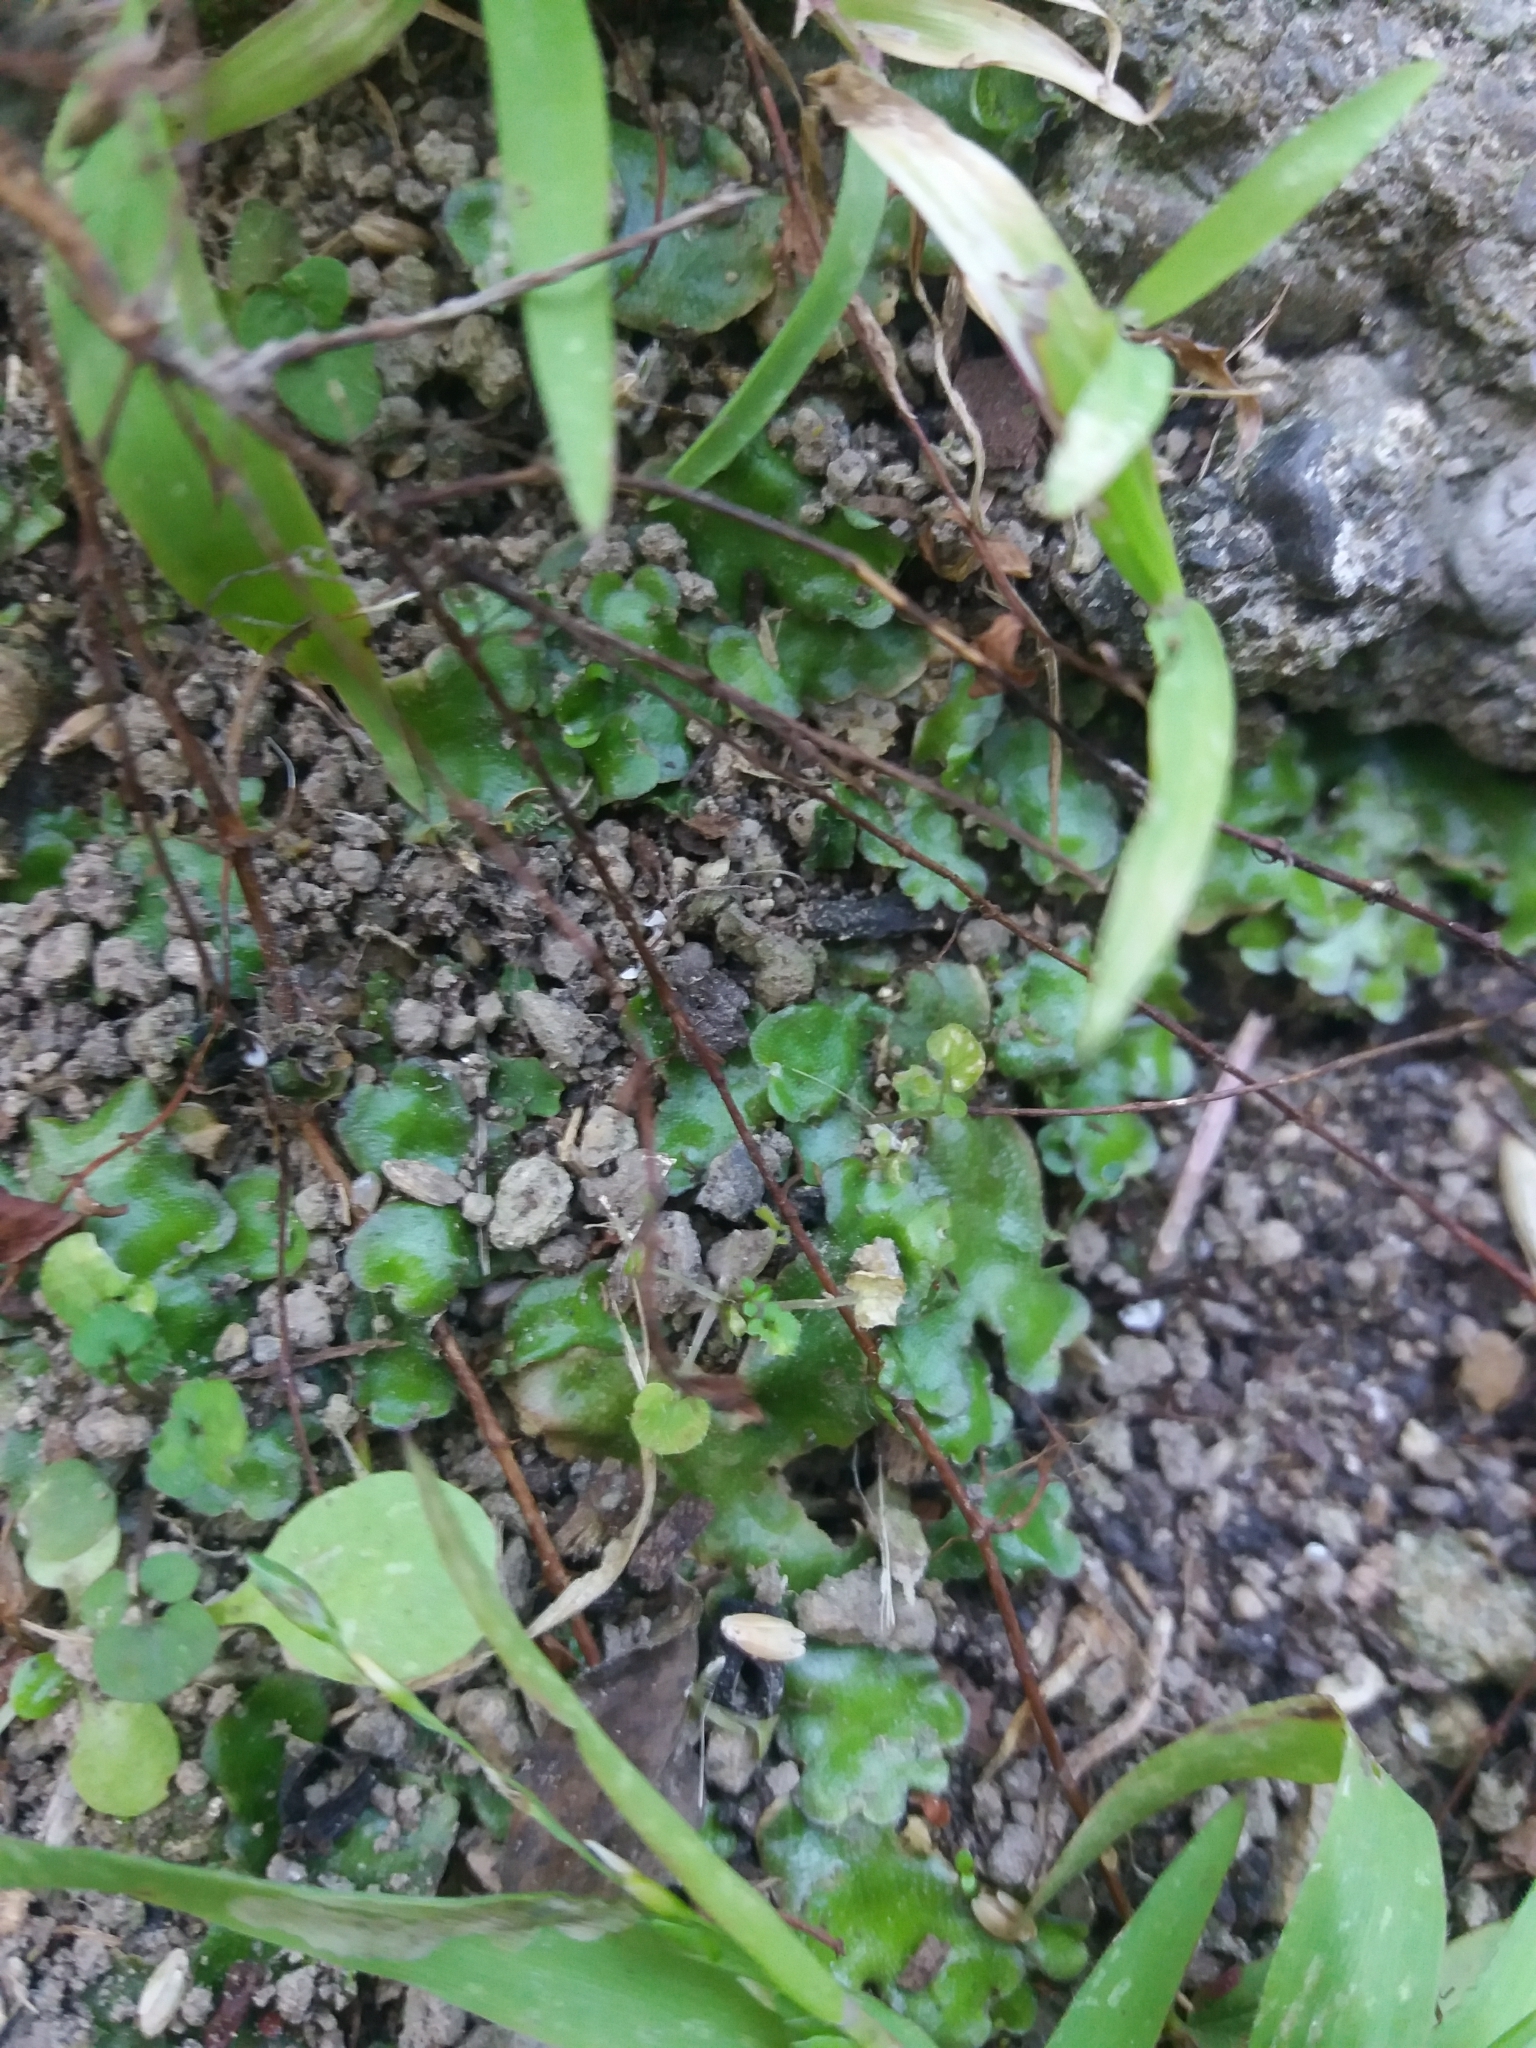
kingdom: Plantae
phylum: Marchantiophyta
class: Marchantiopsida
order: Lunulariales
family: Lunulariaceae
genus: Lunularia
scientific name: Lunularia cruciata
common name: Crescent-cup liverwort
